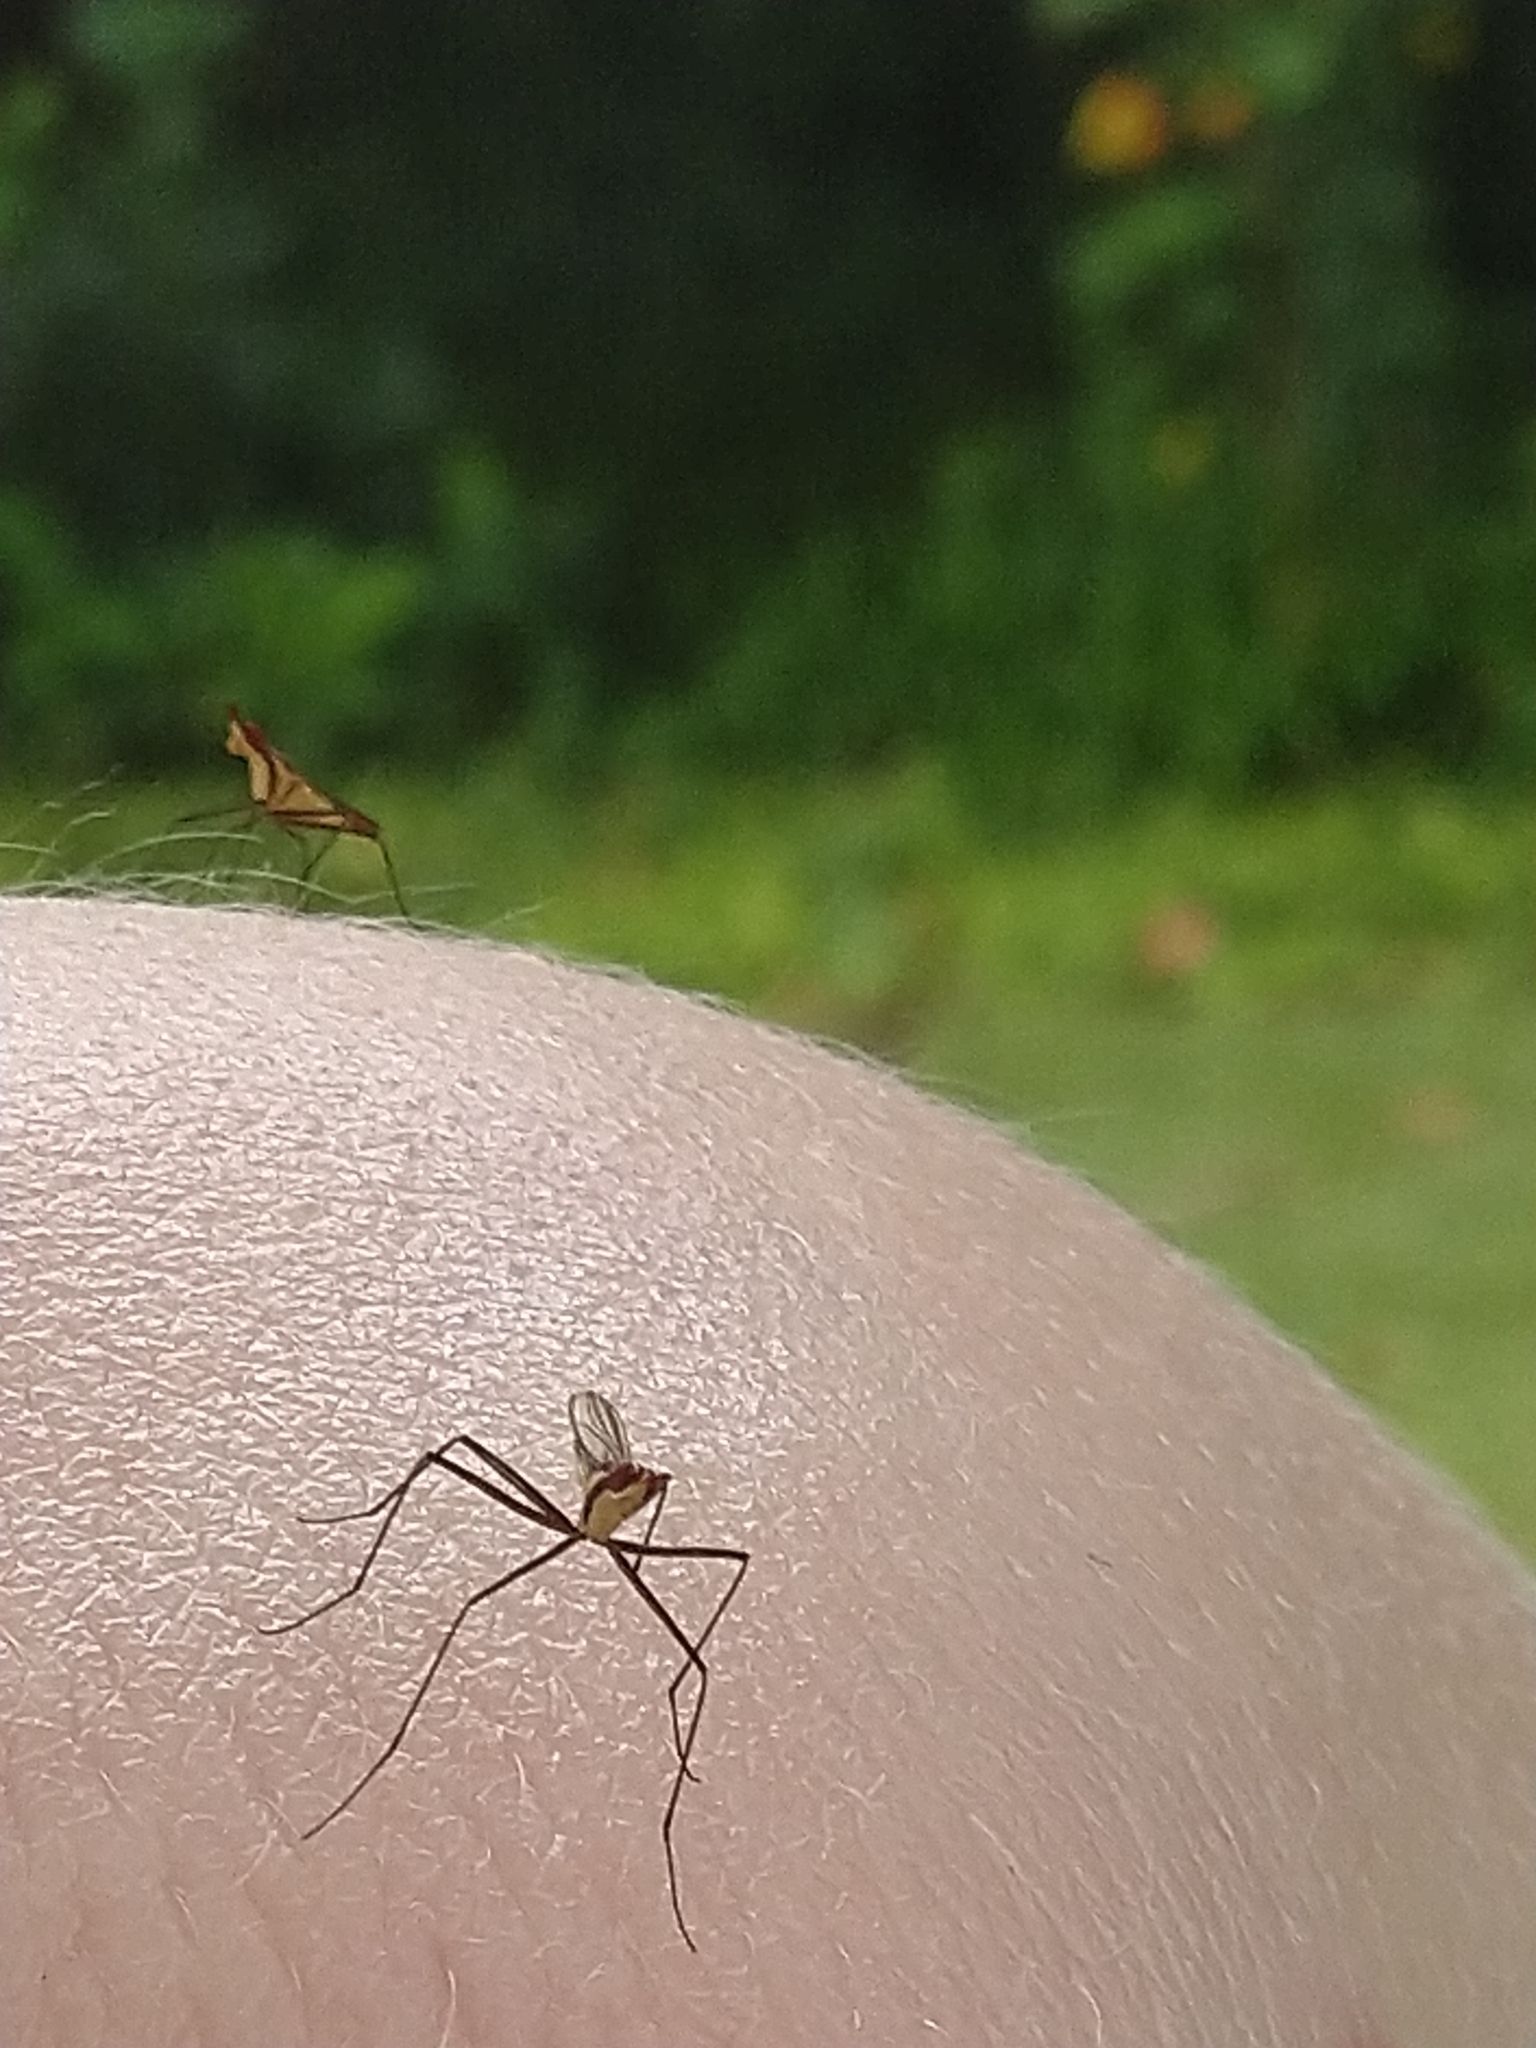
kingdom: Animalia
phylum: Arthropoda
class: Insecta
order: Diptera
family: Neriidae
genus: Telostylinus
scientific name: Telostylinus lineolatus
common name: Banana stalk fly
